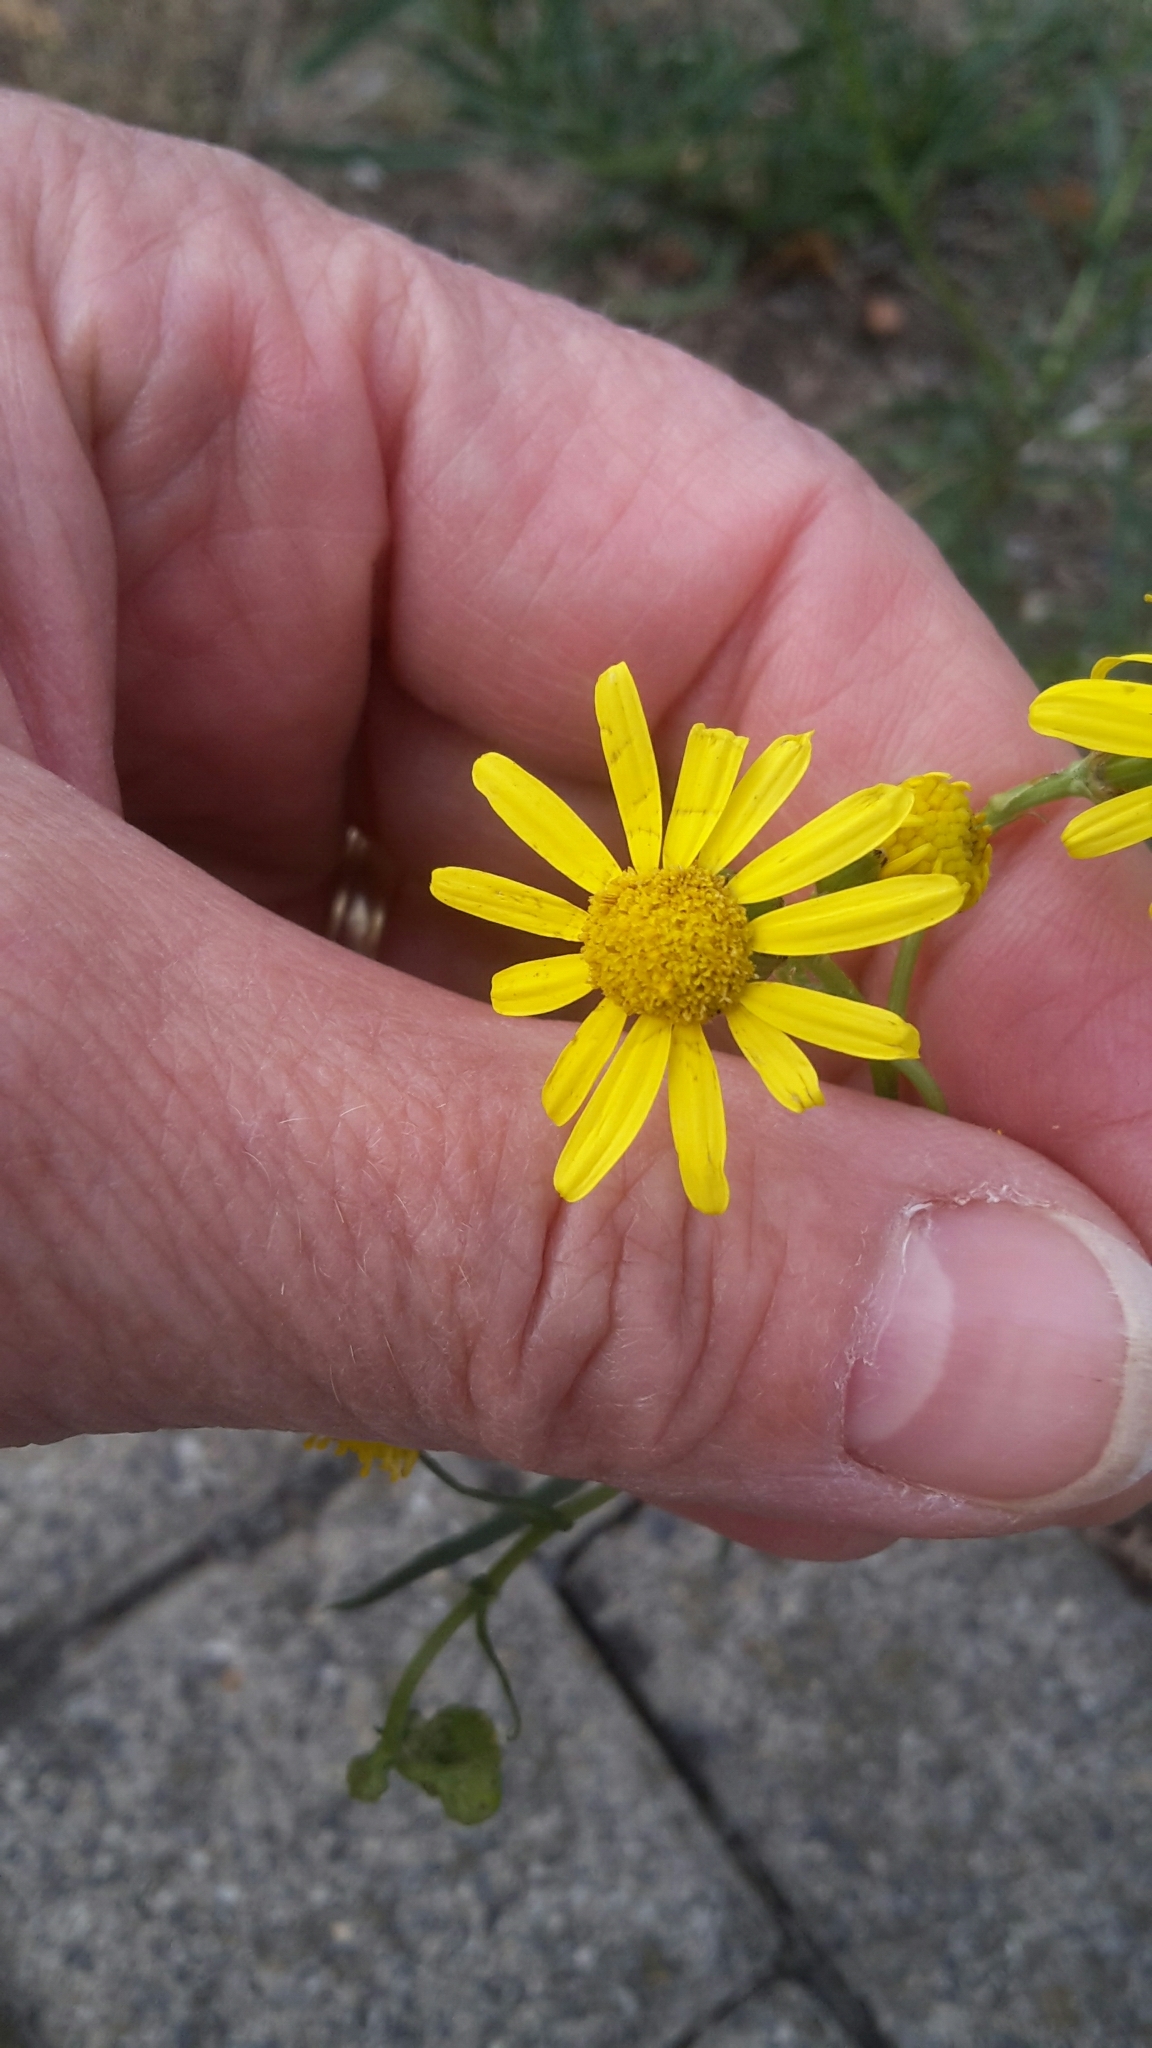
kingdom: Plantae
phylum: Tracheophyta
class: Magnoliopsida
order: Asterales
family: Asteraceae
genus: Senecio
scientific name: Senecio inaequidens
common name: Narrow-leaved ragwort
